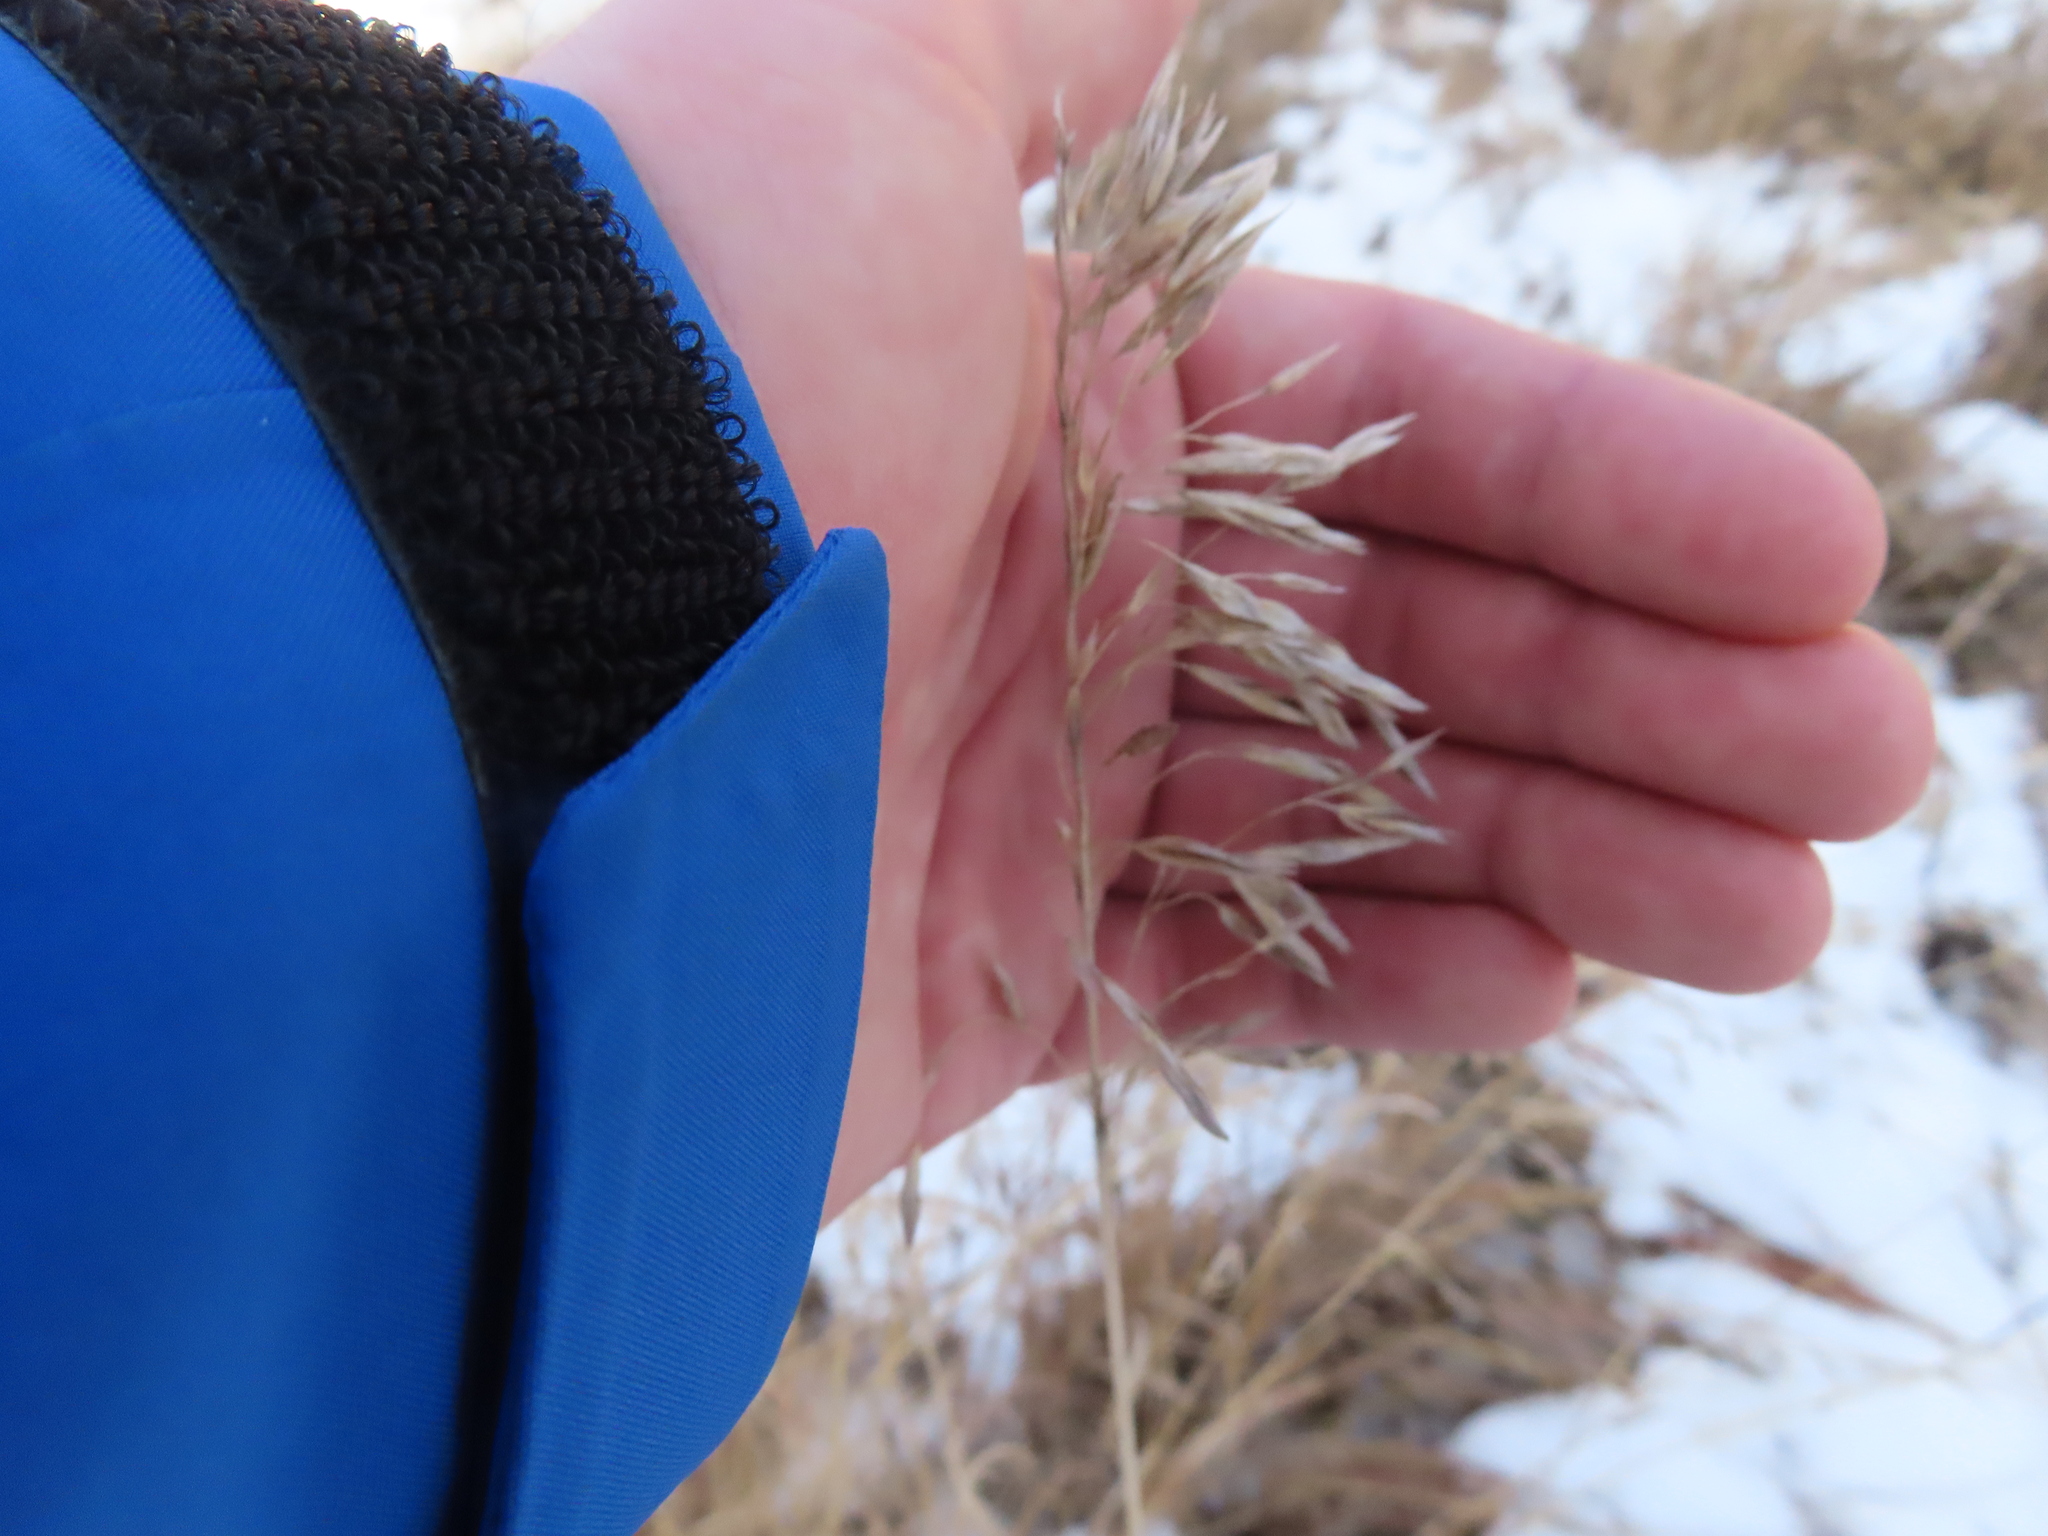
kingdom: Plantae
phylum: Tracheophyta
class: Liliopsida
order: Poales
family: Poaceae
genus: Bromus
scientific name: Bromus inermis
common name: Smooth brome
